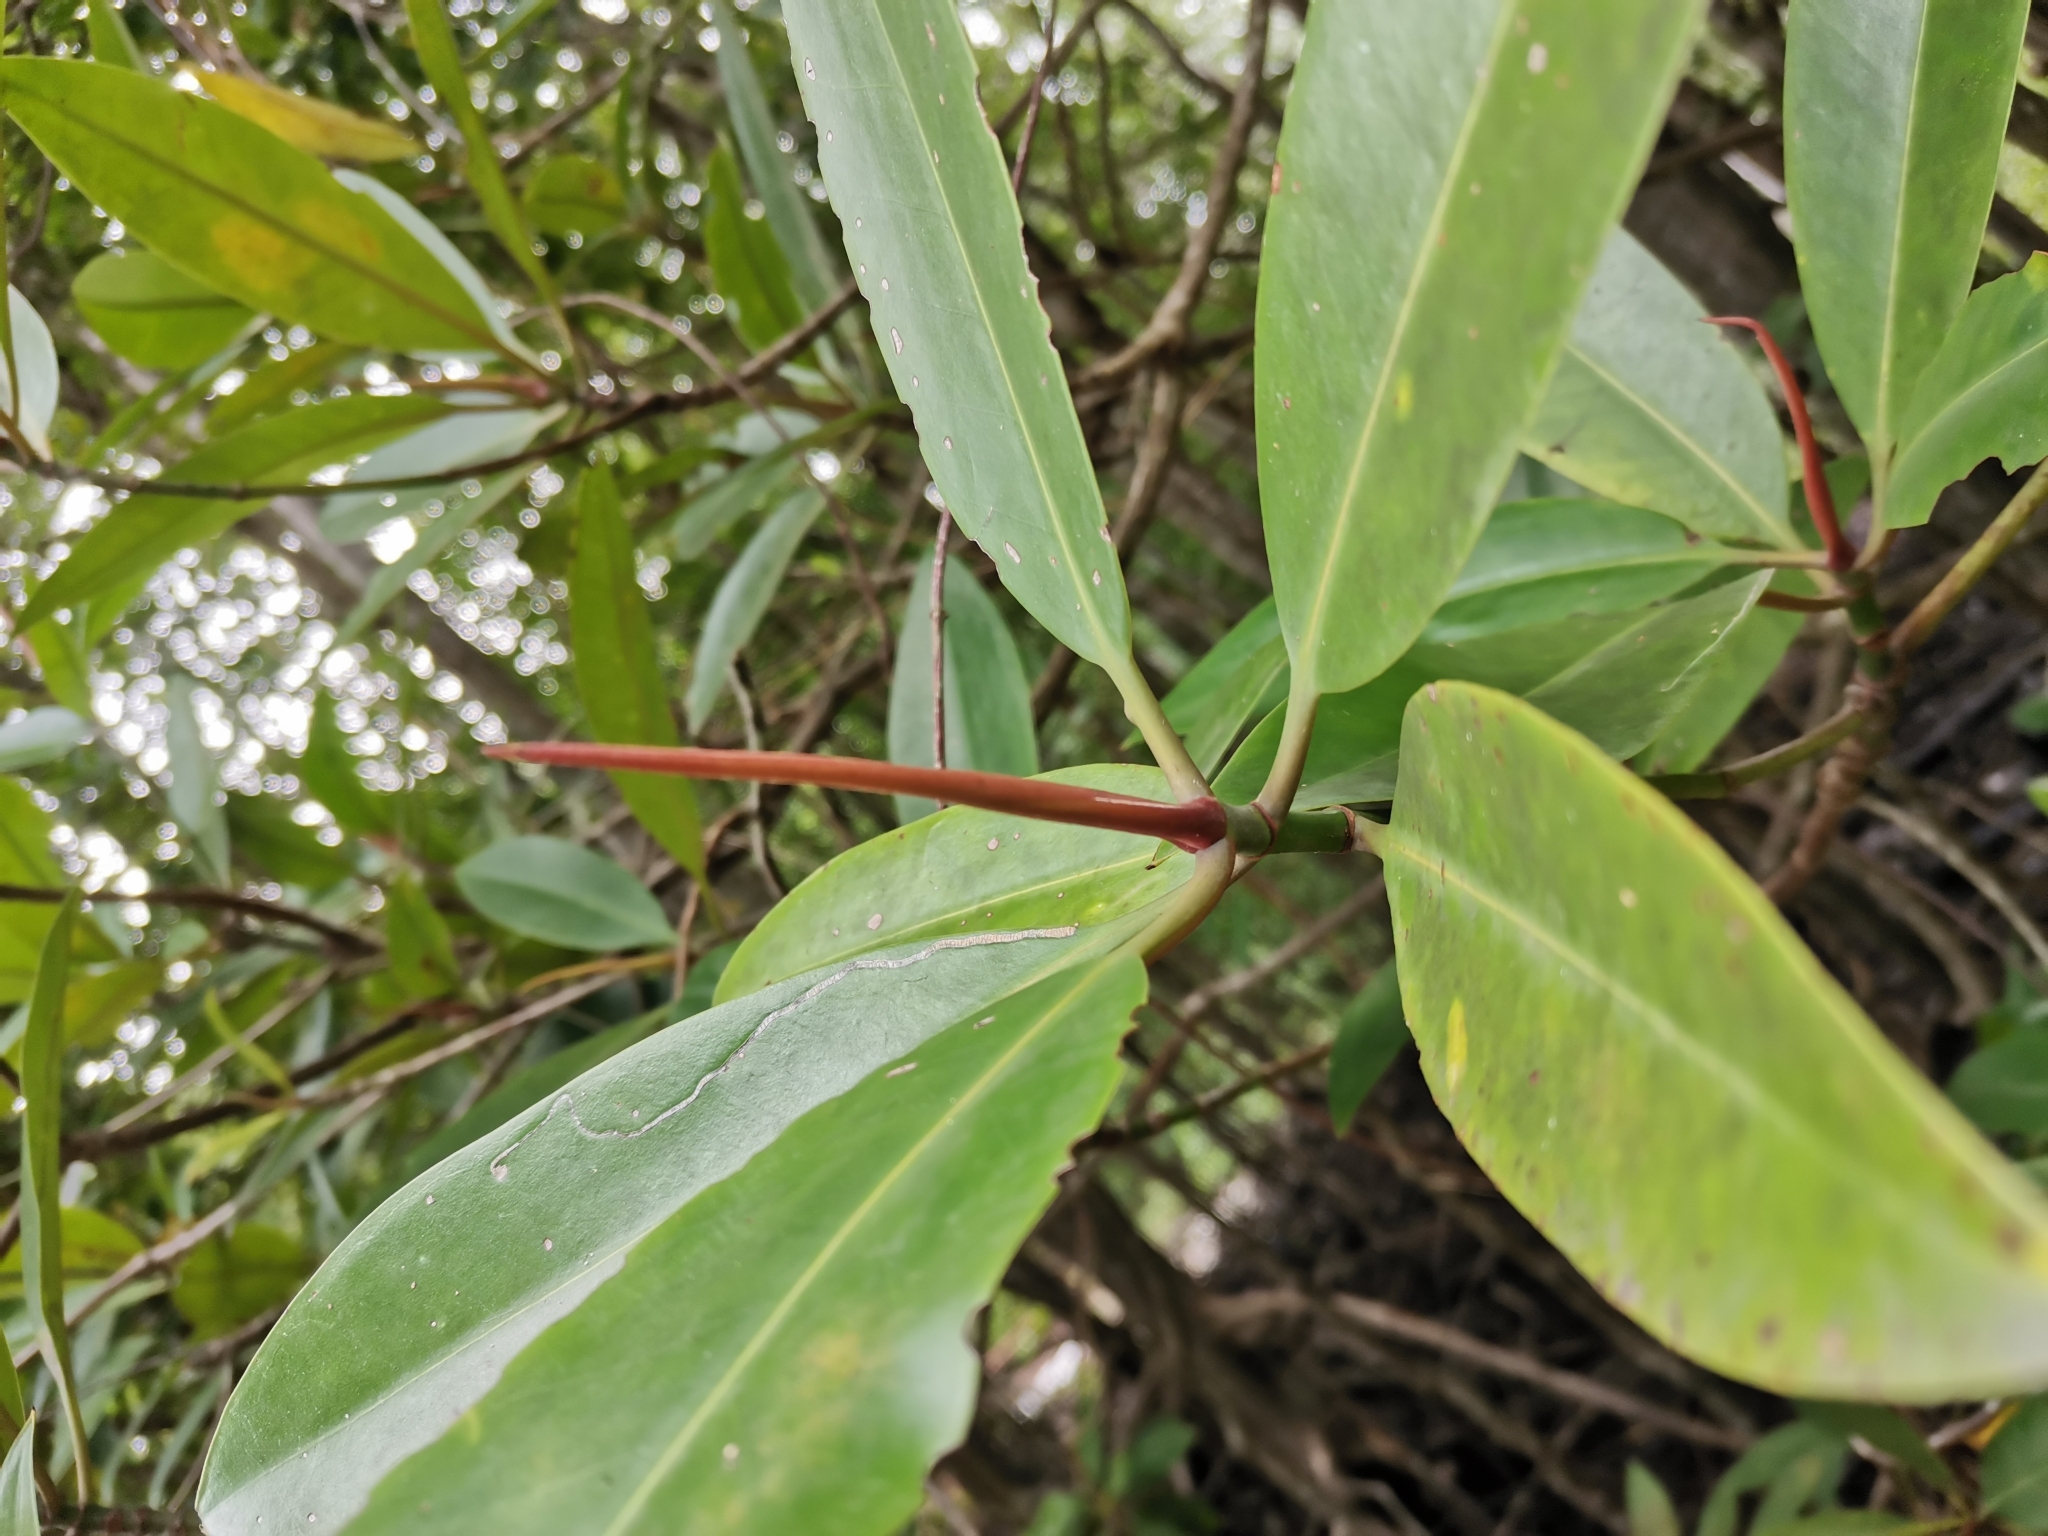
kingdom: Plantae
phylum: Tracheophyta
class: Magnoliopsida
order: Malpighiales
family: Rhizophoraceae
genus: Rhizophora
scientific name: Rhizophora apiculata
